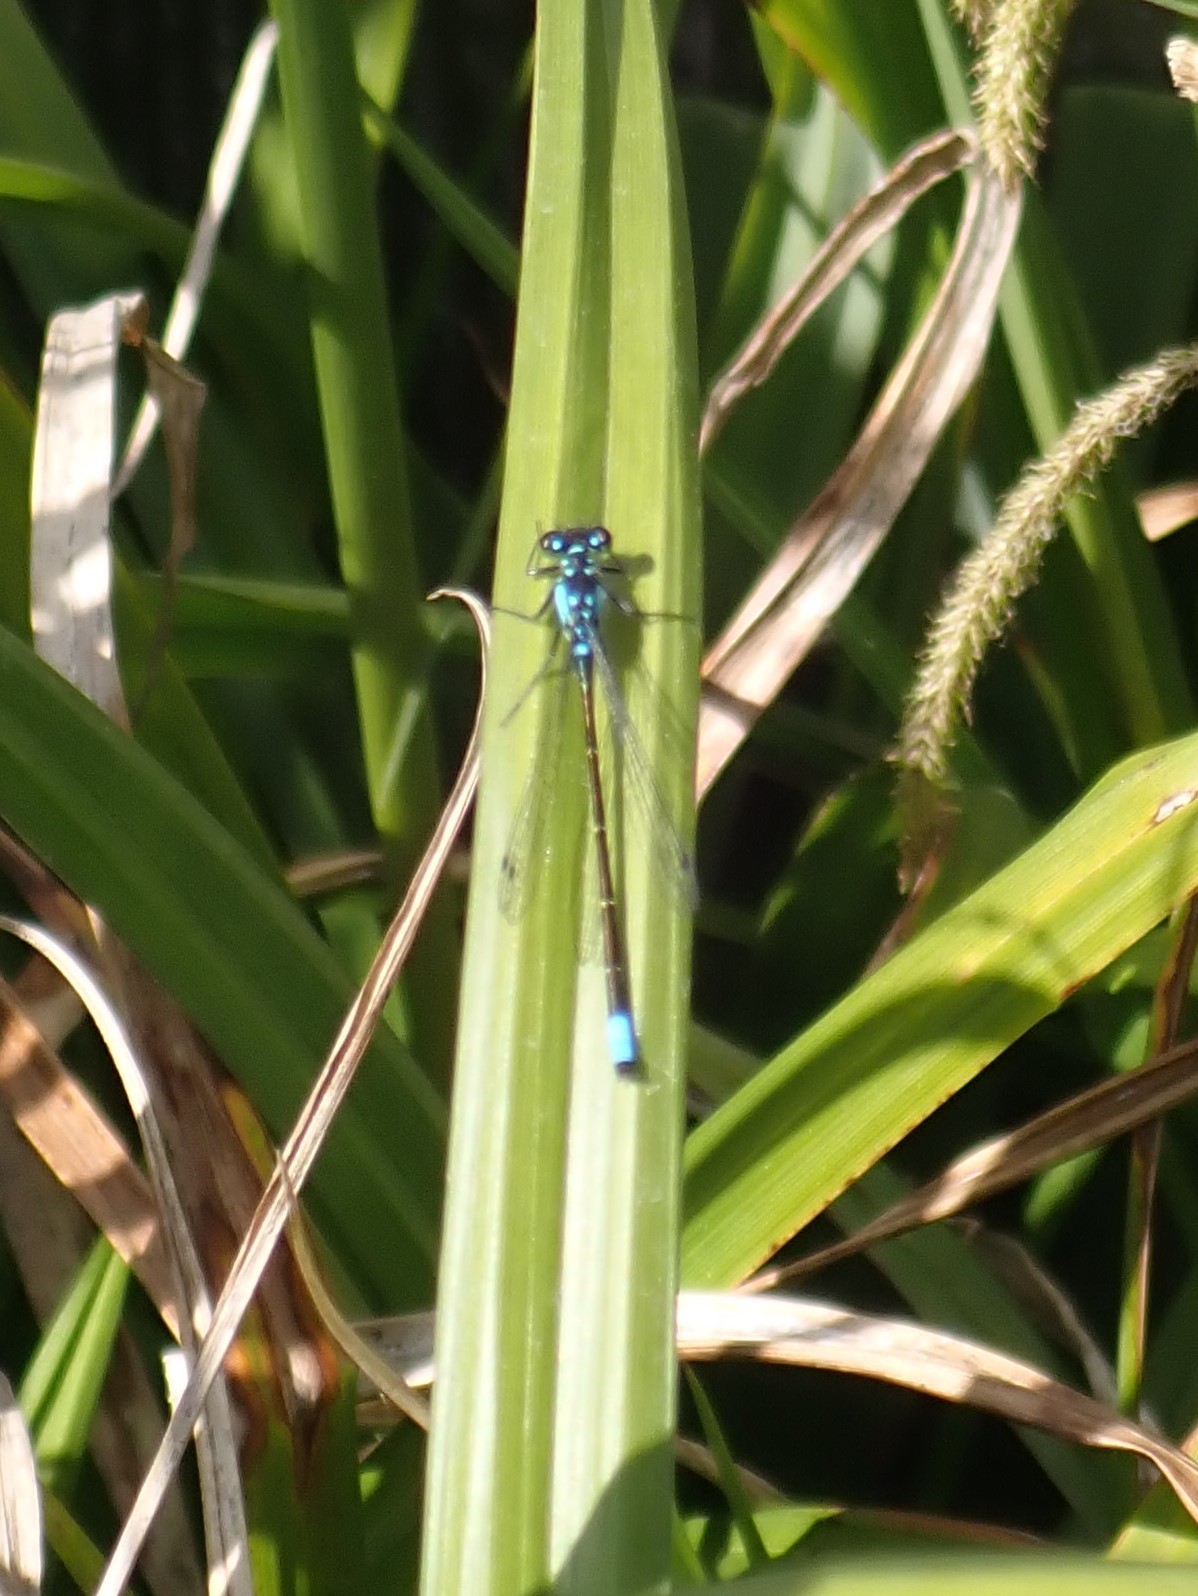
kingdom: Animalia
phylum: Arthropoda
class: Insecta
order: Odonata
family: Coenagrionidae
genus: Ischnura
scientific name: Ischnura cervula
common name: Pacific forktail
